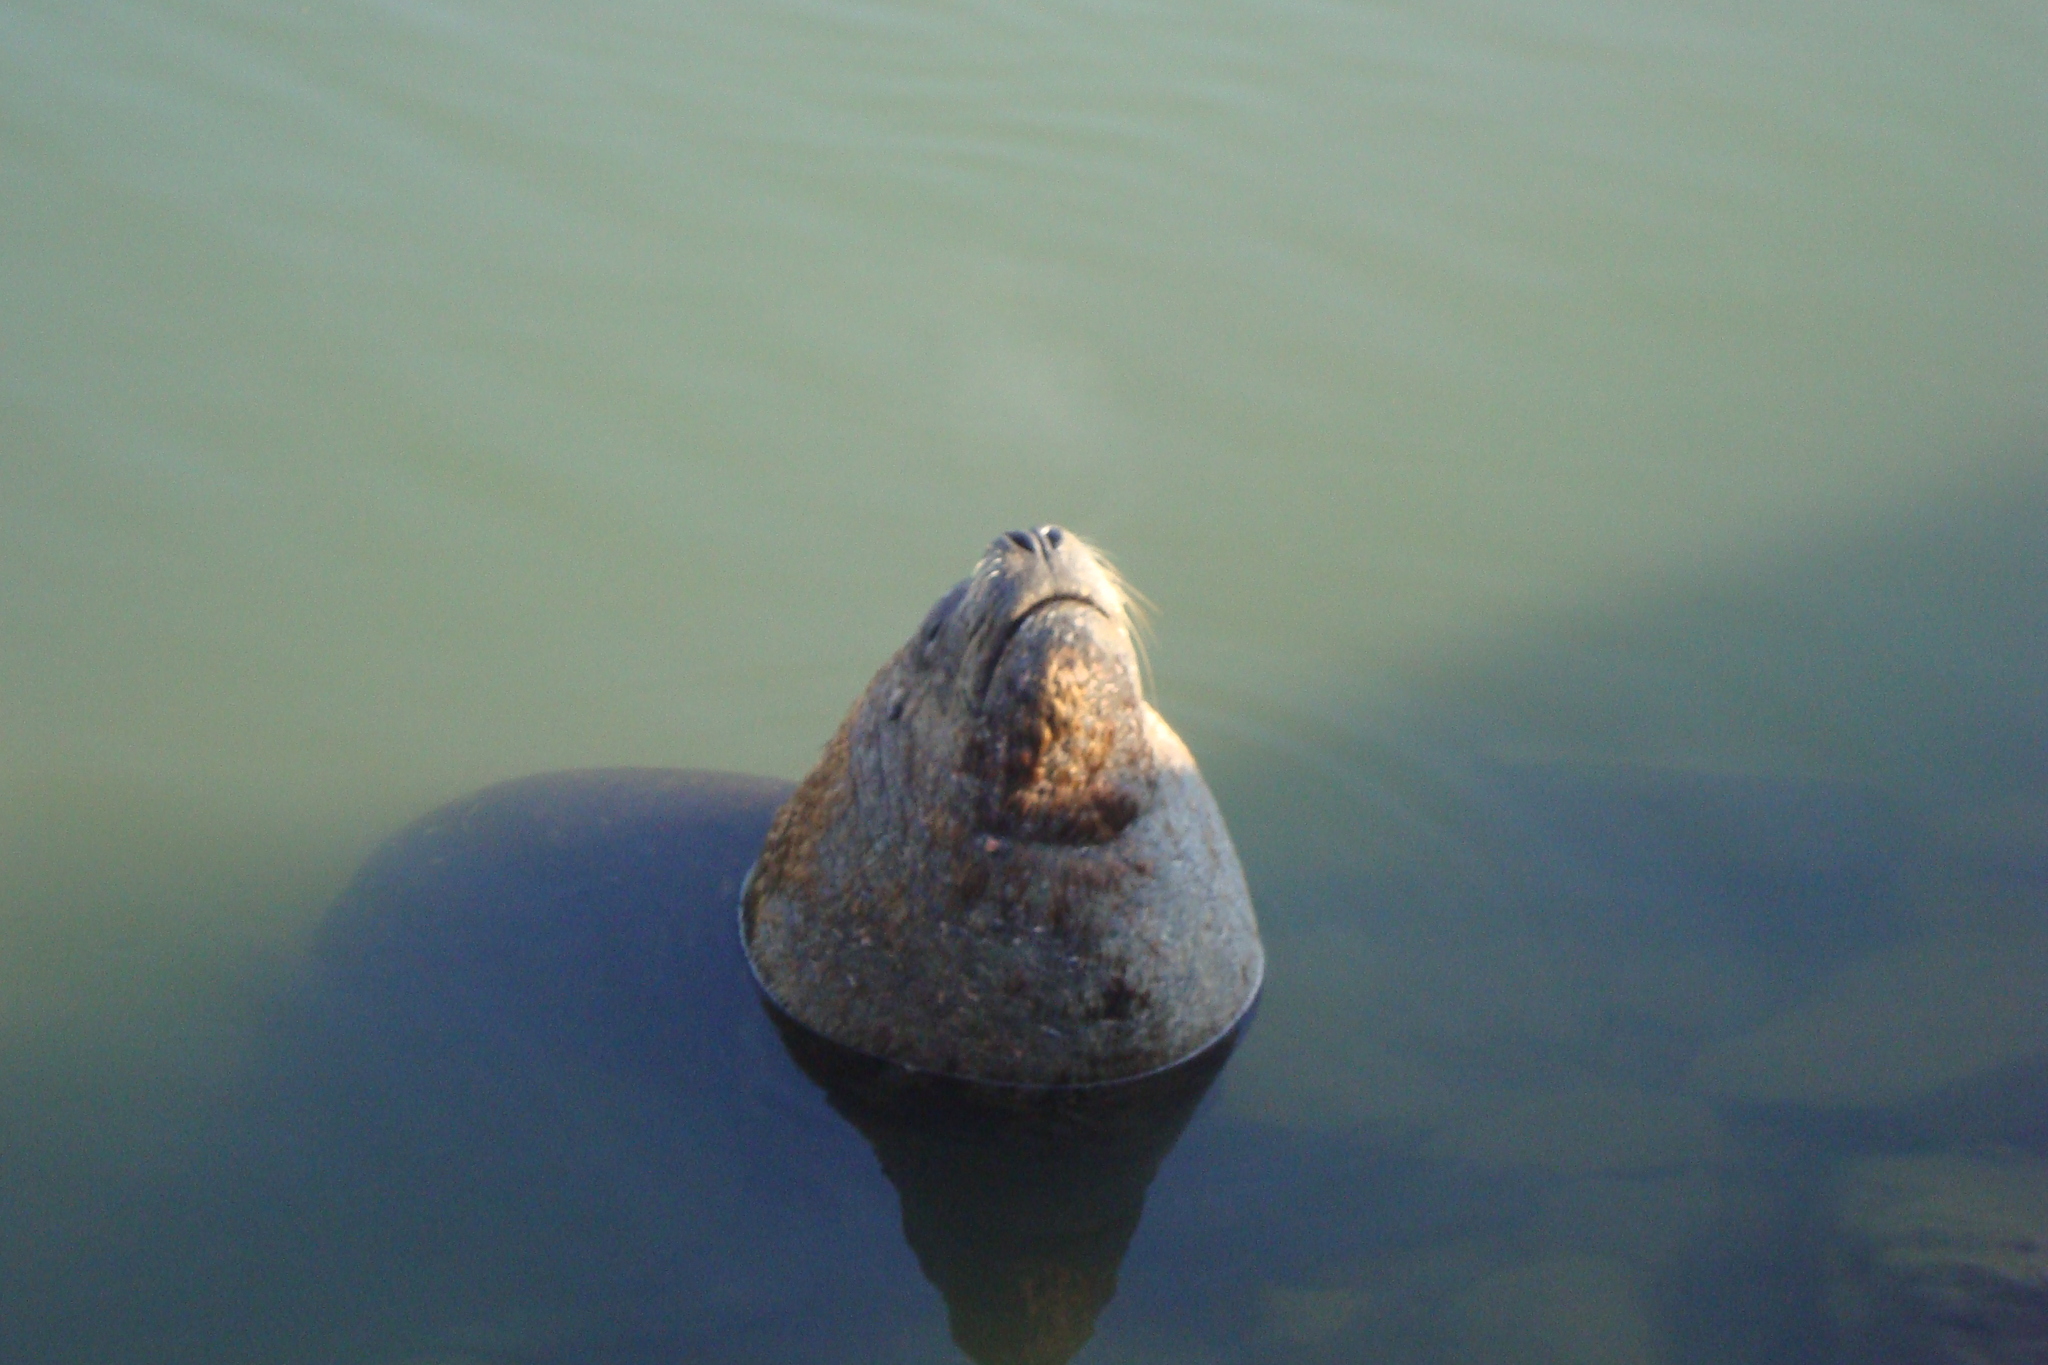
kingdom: Animalia
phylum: Chordata
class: Mammalia
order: Carnivora
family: Otariidae
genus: Otaria
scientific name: Otaria byronia
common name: South american sea lion
